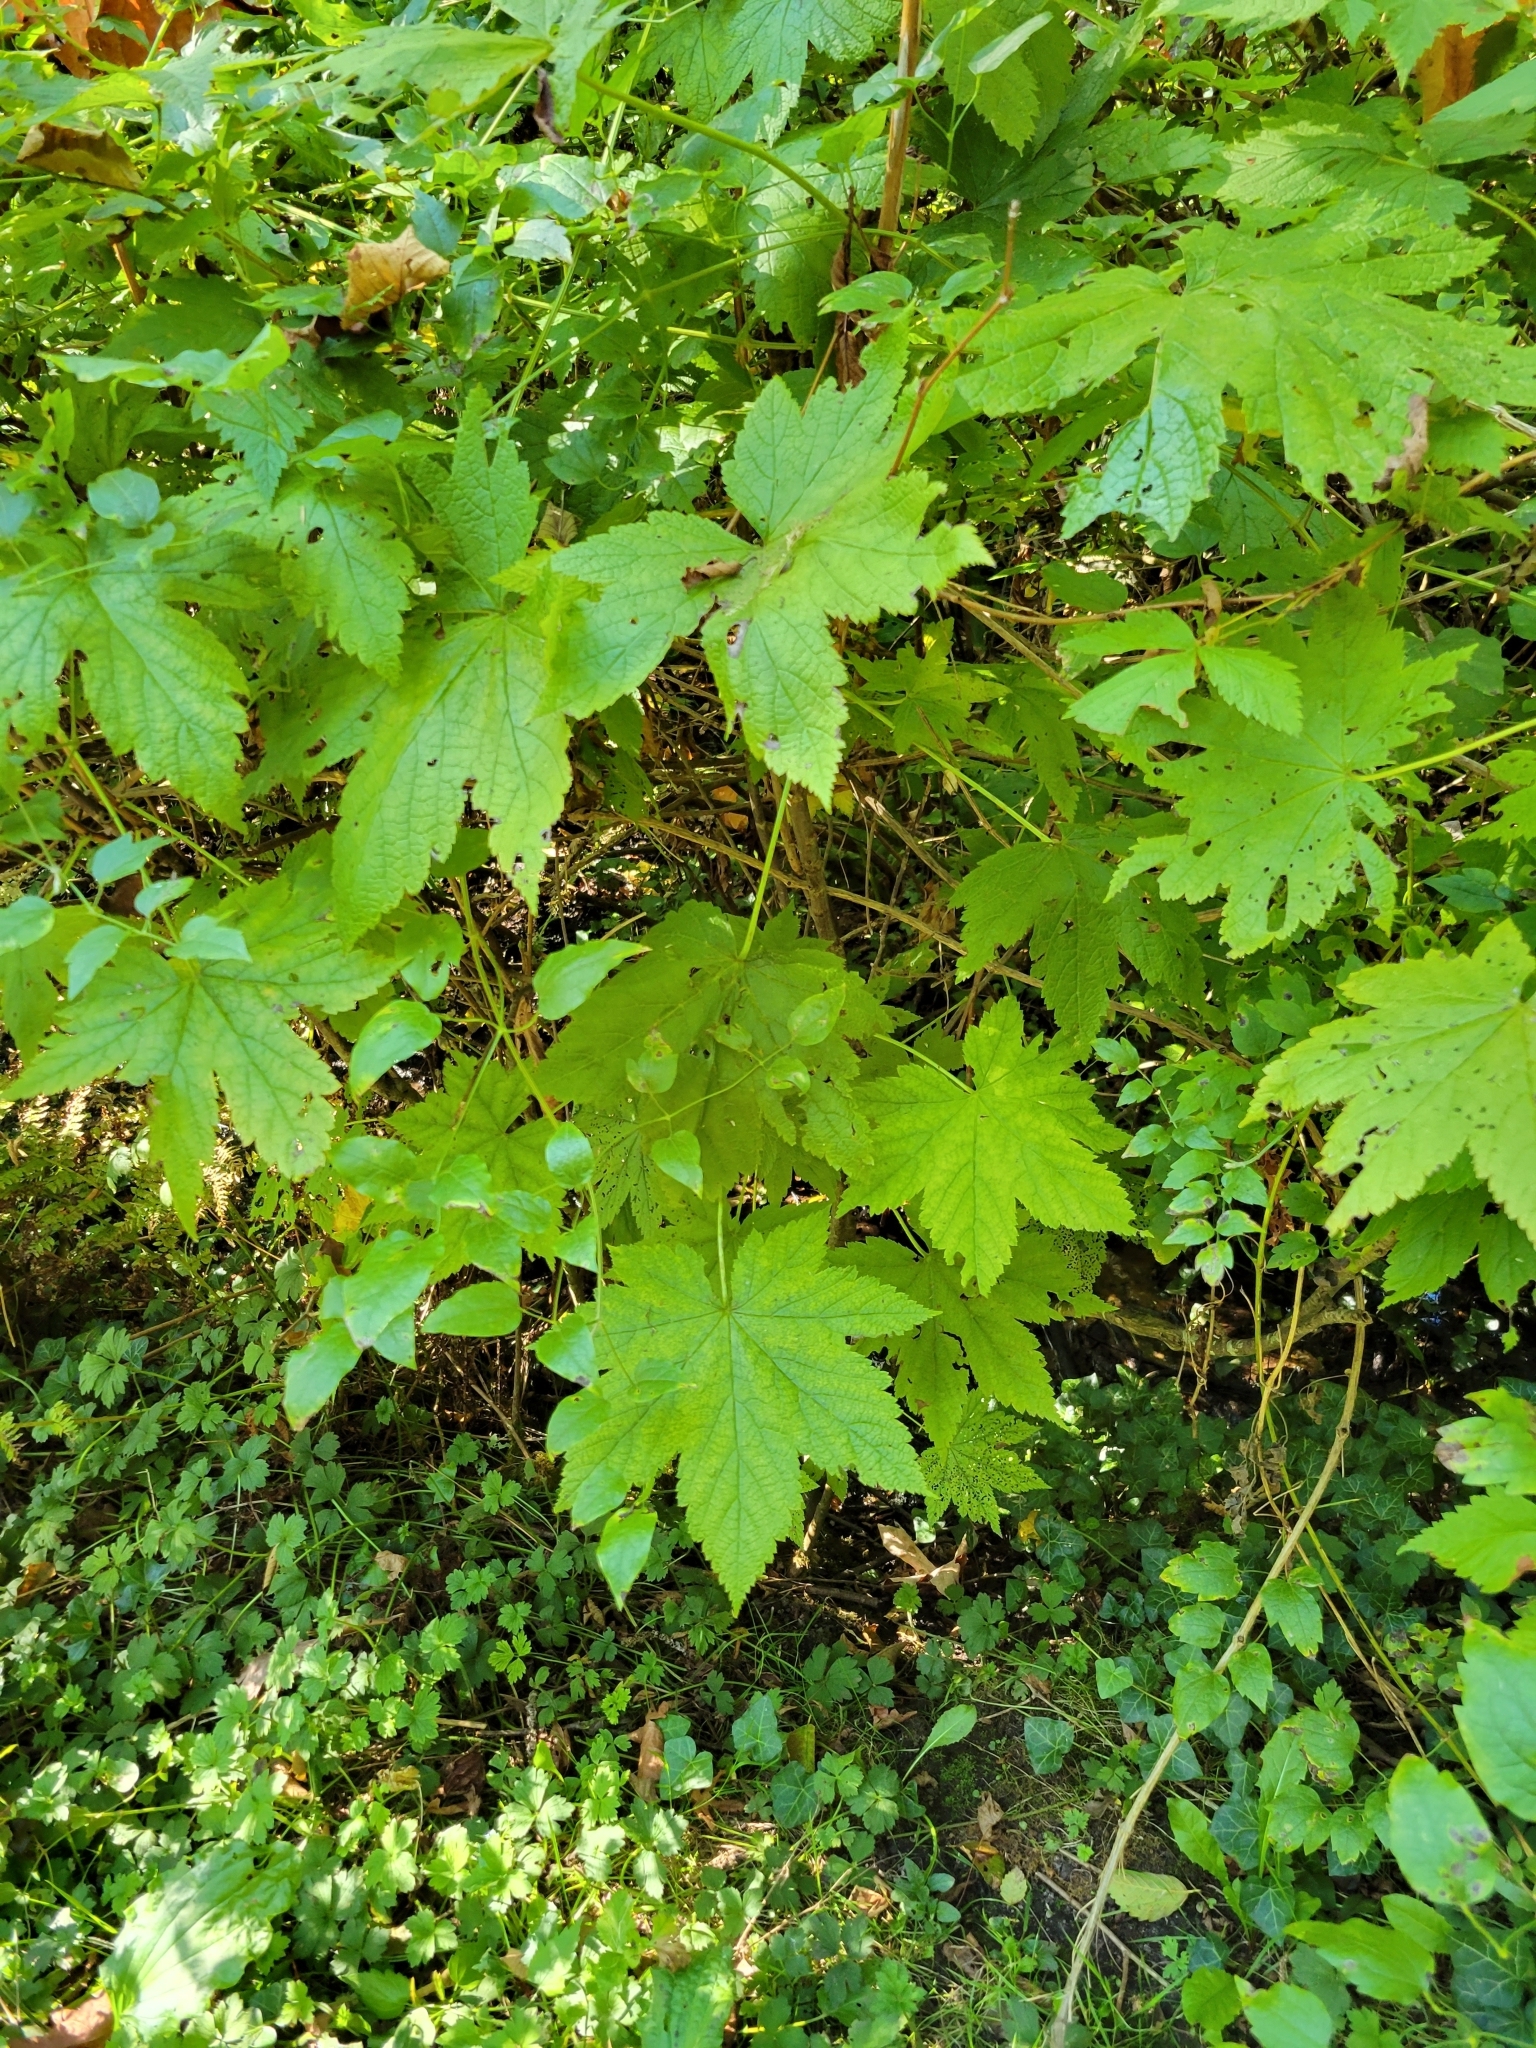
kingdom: Plantae
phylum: Tracheophyta
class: Magnoliopsida
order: Saxifragales
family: Grossulariaceae
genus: Ribes
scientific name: Ribes bracteosum
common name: California black currant
